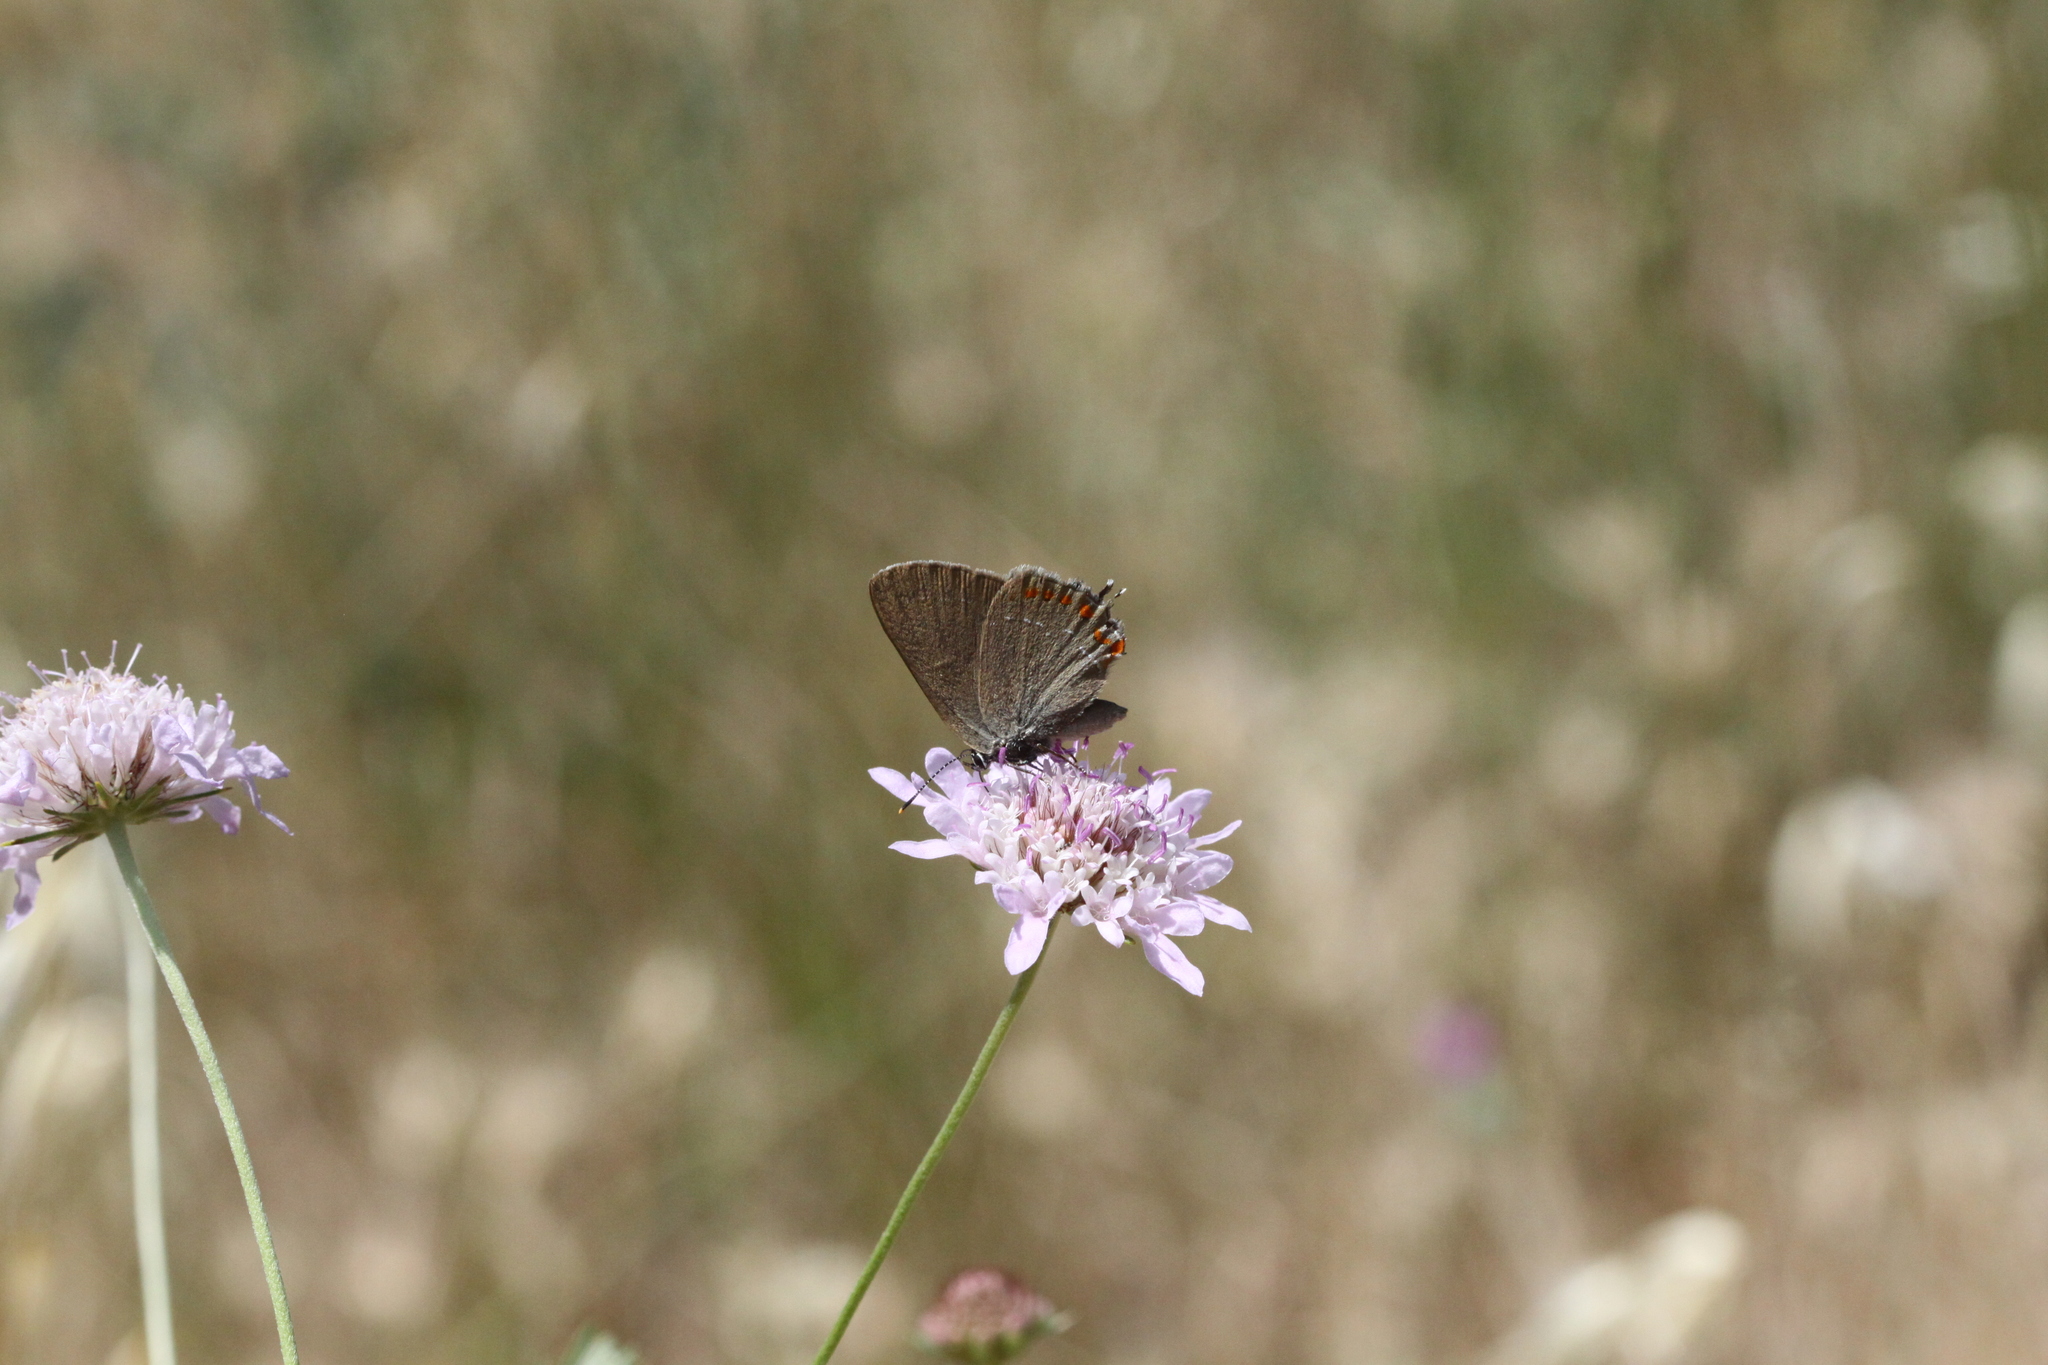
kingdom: Animalia
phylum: Arthropoda
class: Insecta
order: Lepidoptera
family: Lycaenidae
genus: Fixsenia
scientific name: Fixsenia esculi
